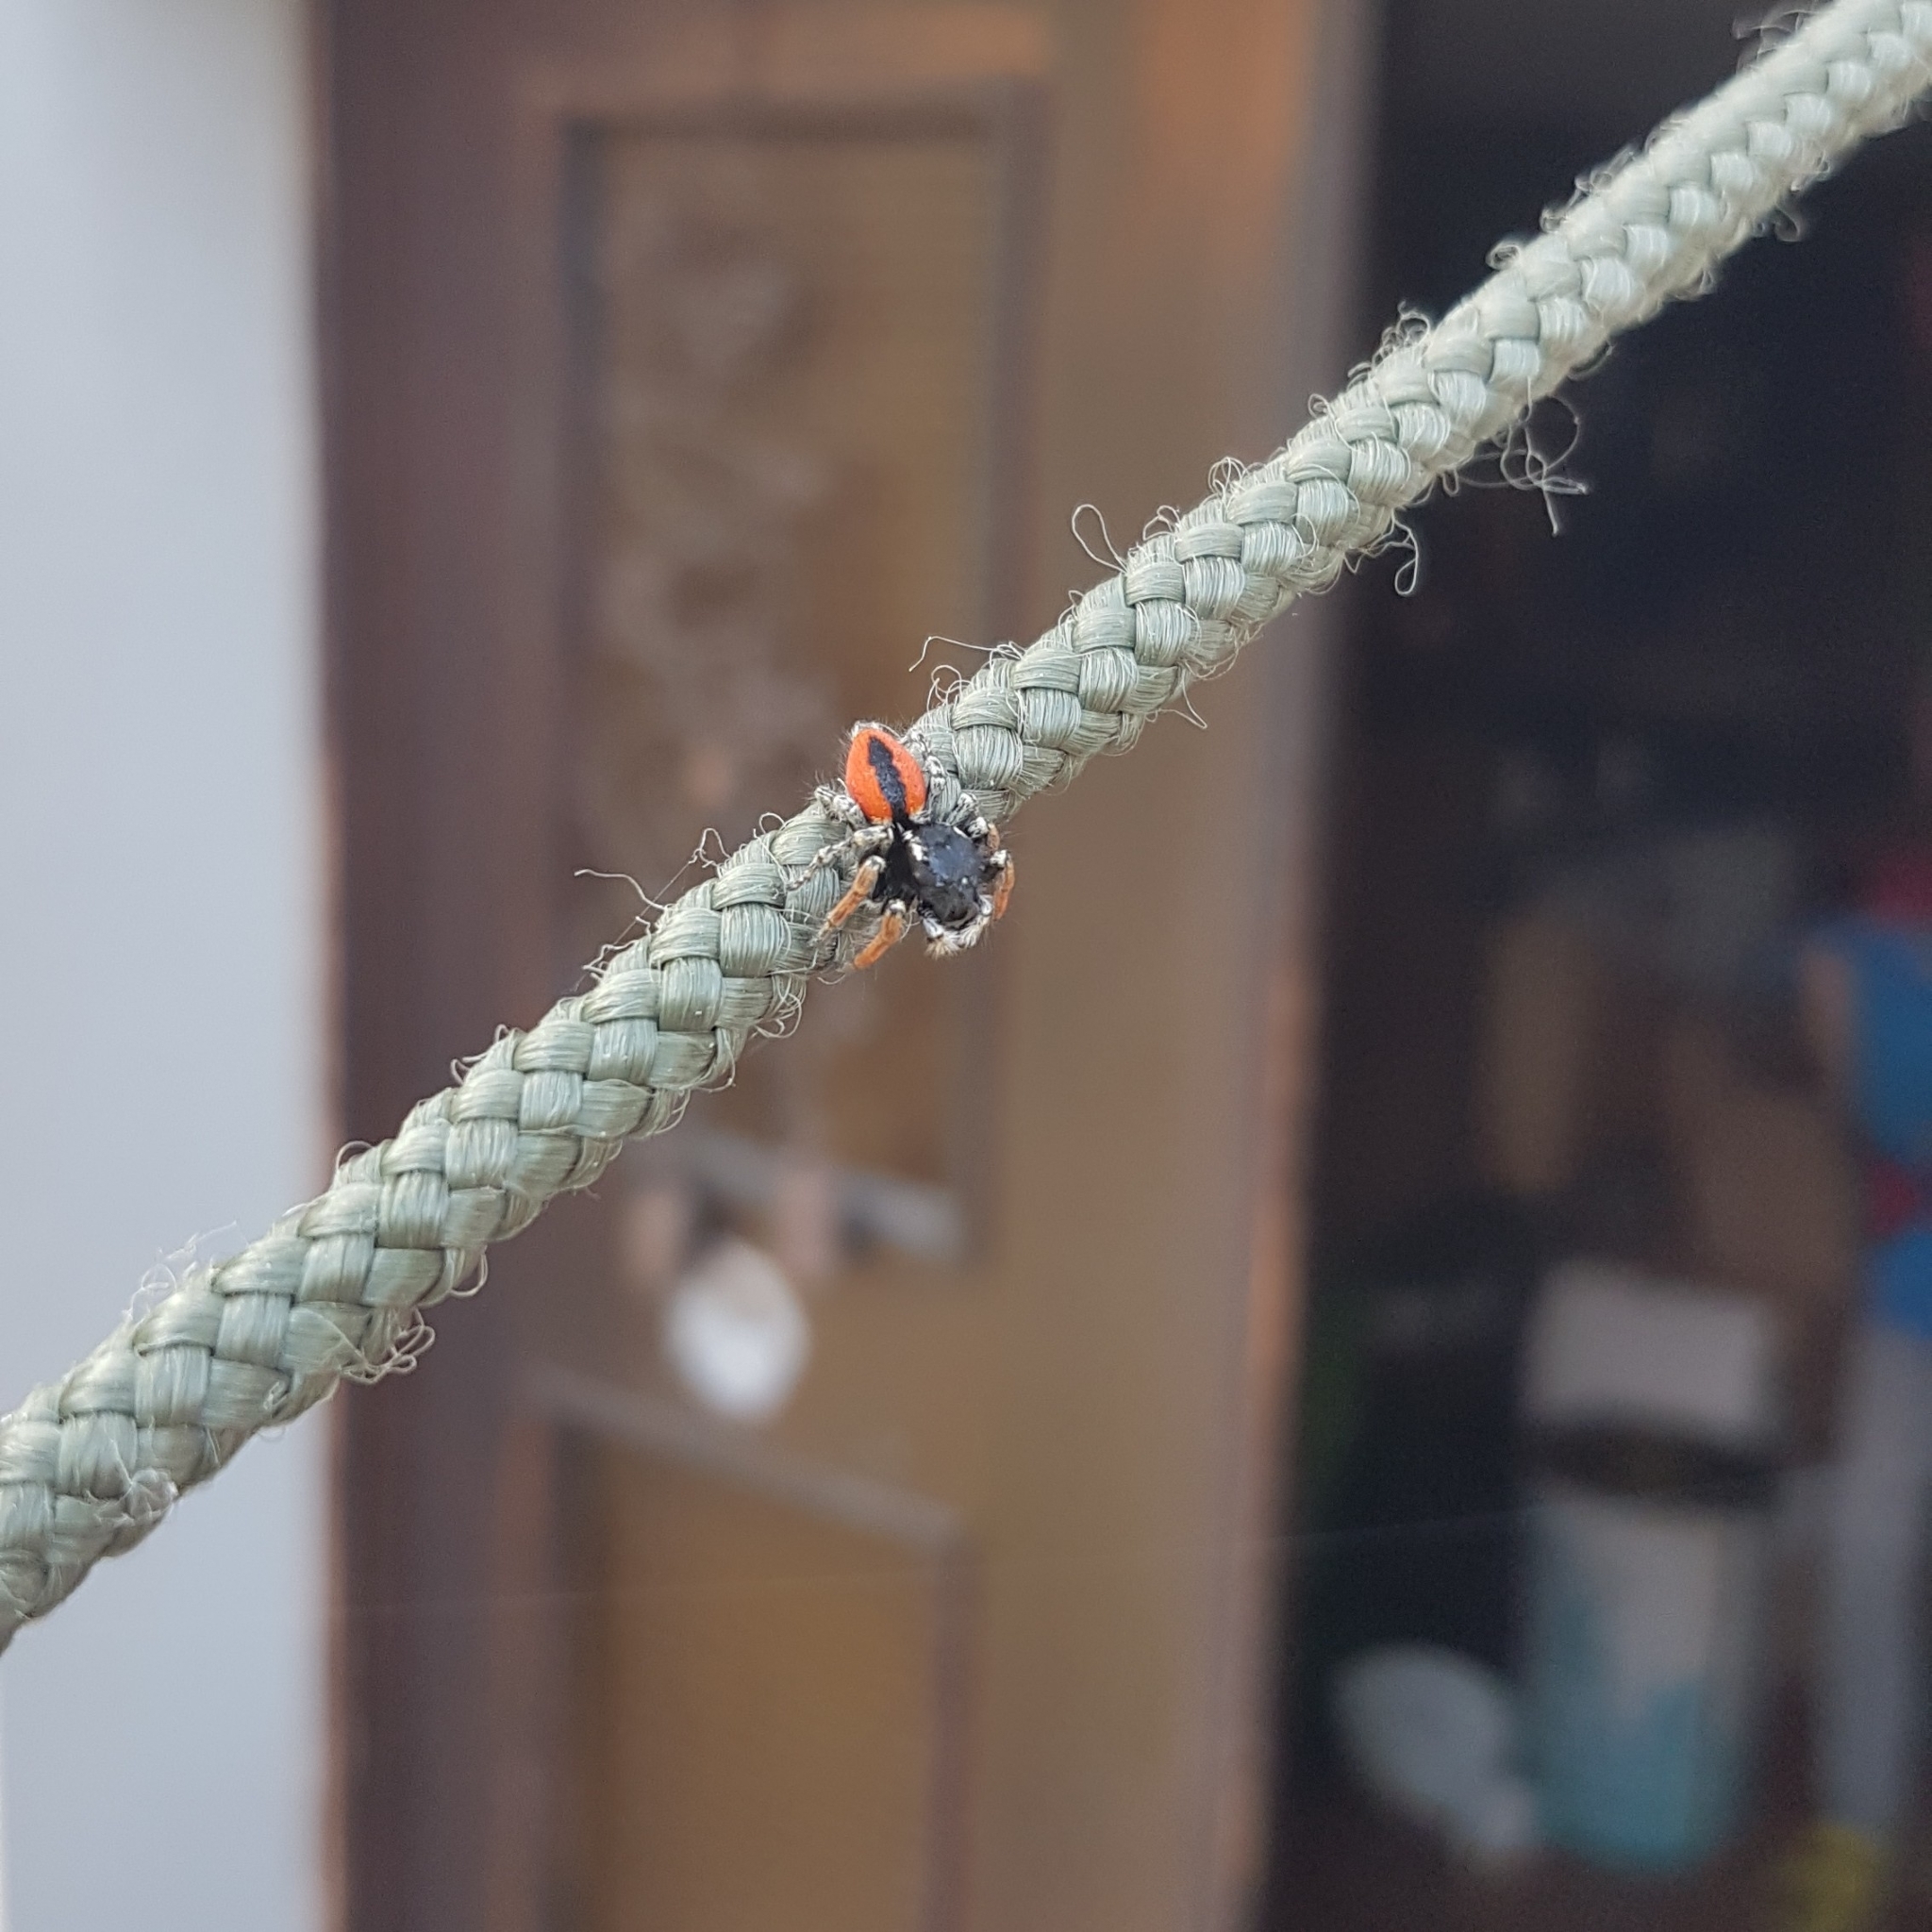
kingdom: Animalia
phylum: Arthropoda
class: Arachnida
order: Araneae
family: Salticidae
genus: Philaeus
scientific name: Philaeus chrysops
